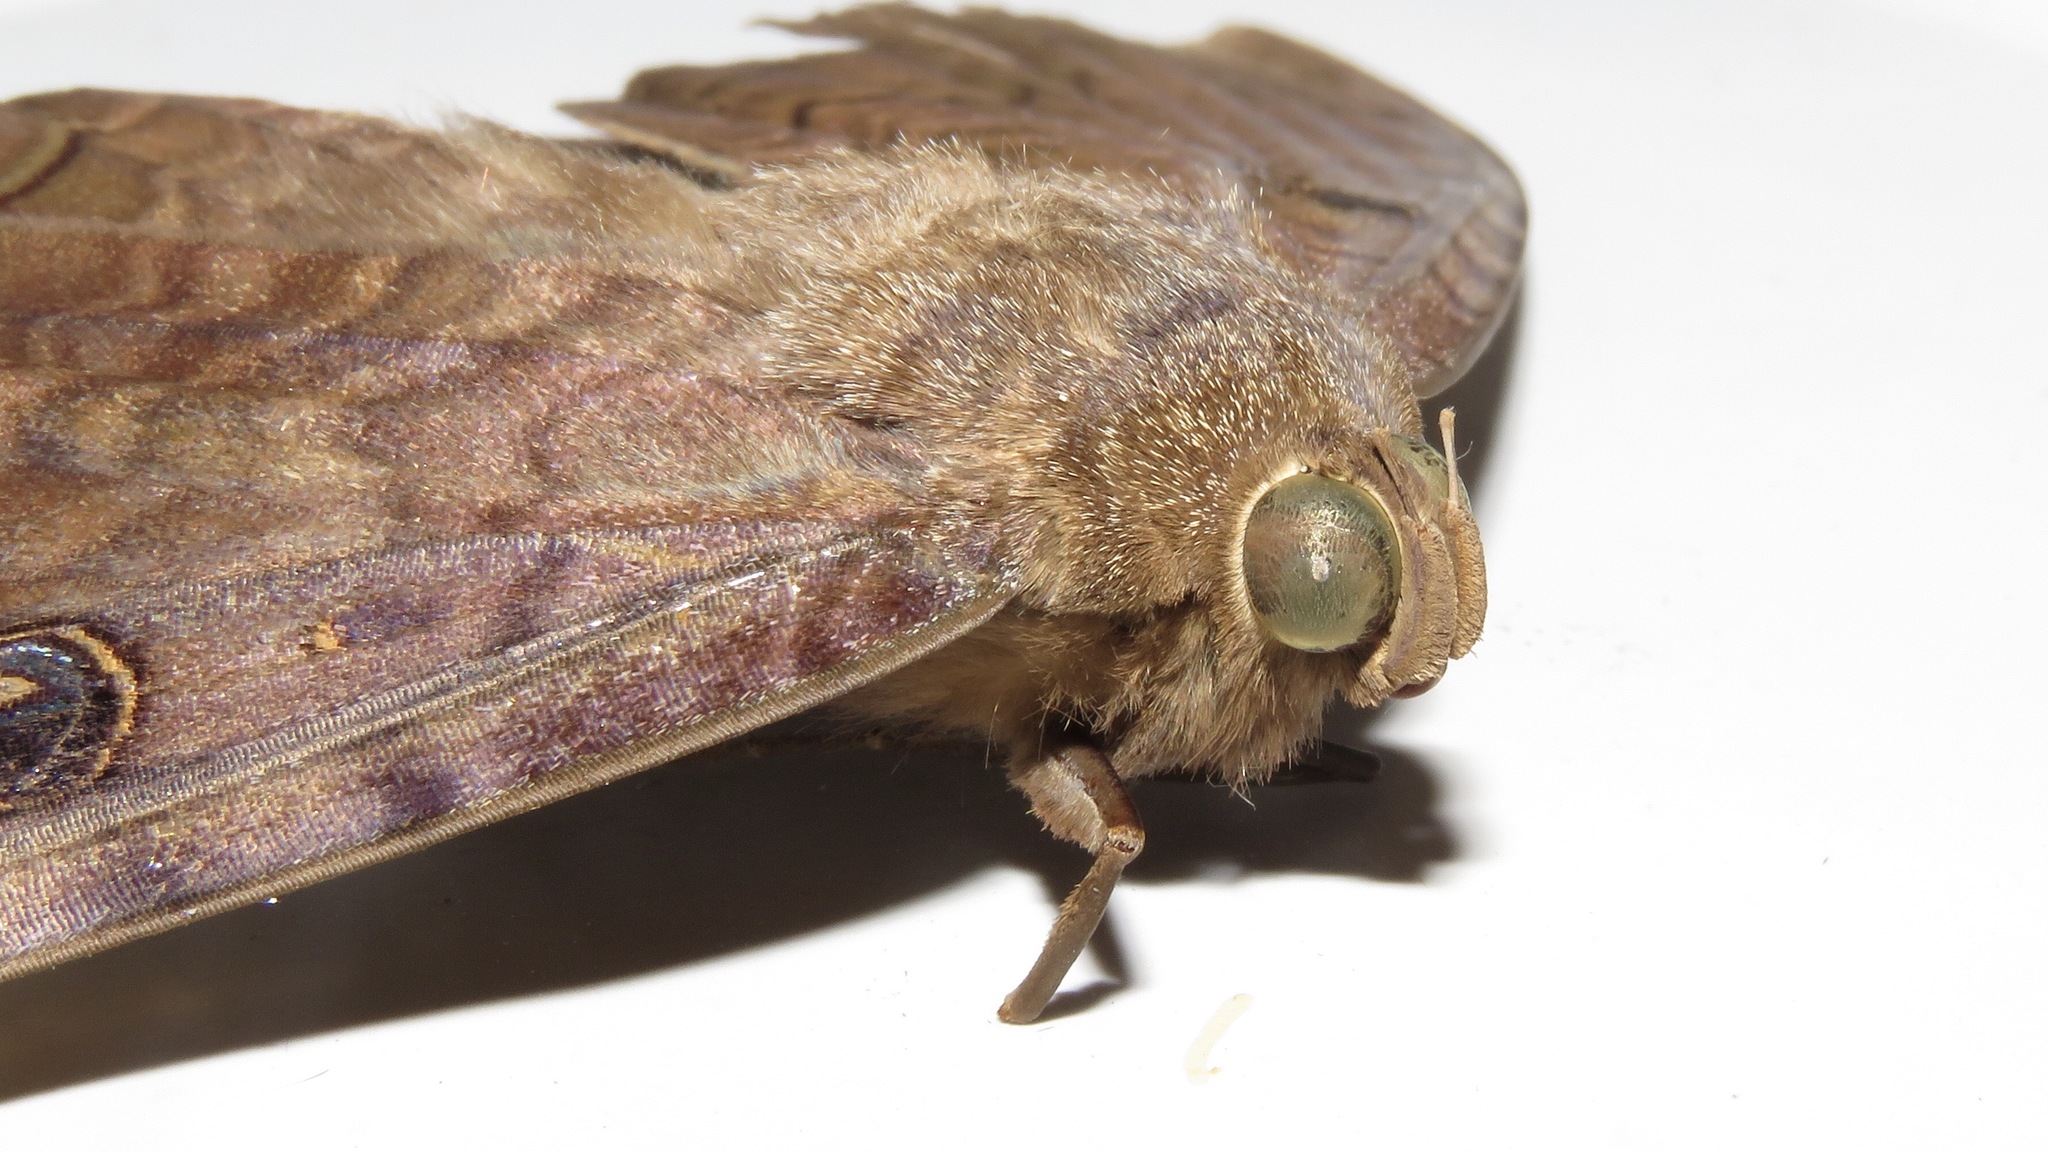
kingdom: Animalia
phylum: Arthropoda
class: Insecta
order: Lepidoptera
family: Erebidae
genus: Ascalapha
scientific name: Ascalapha odorata
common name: Black witch
